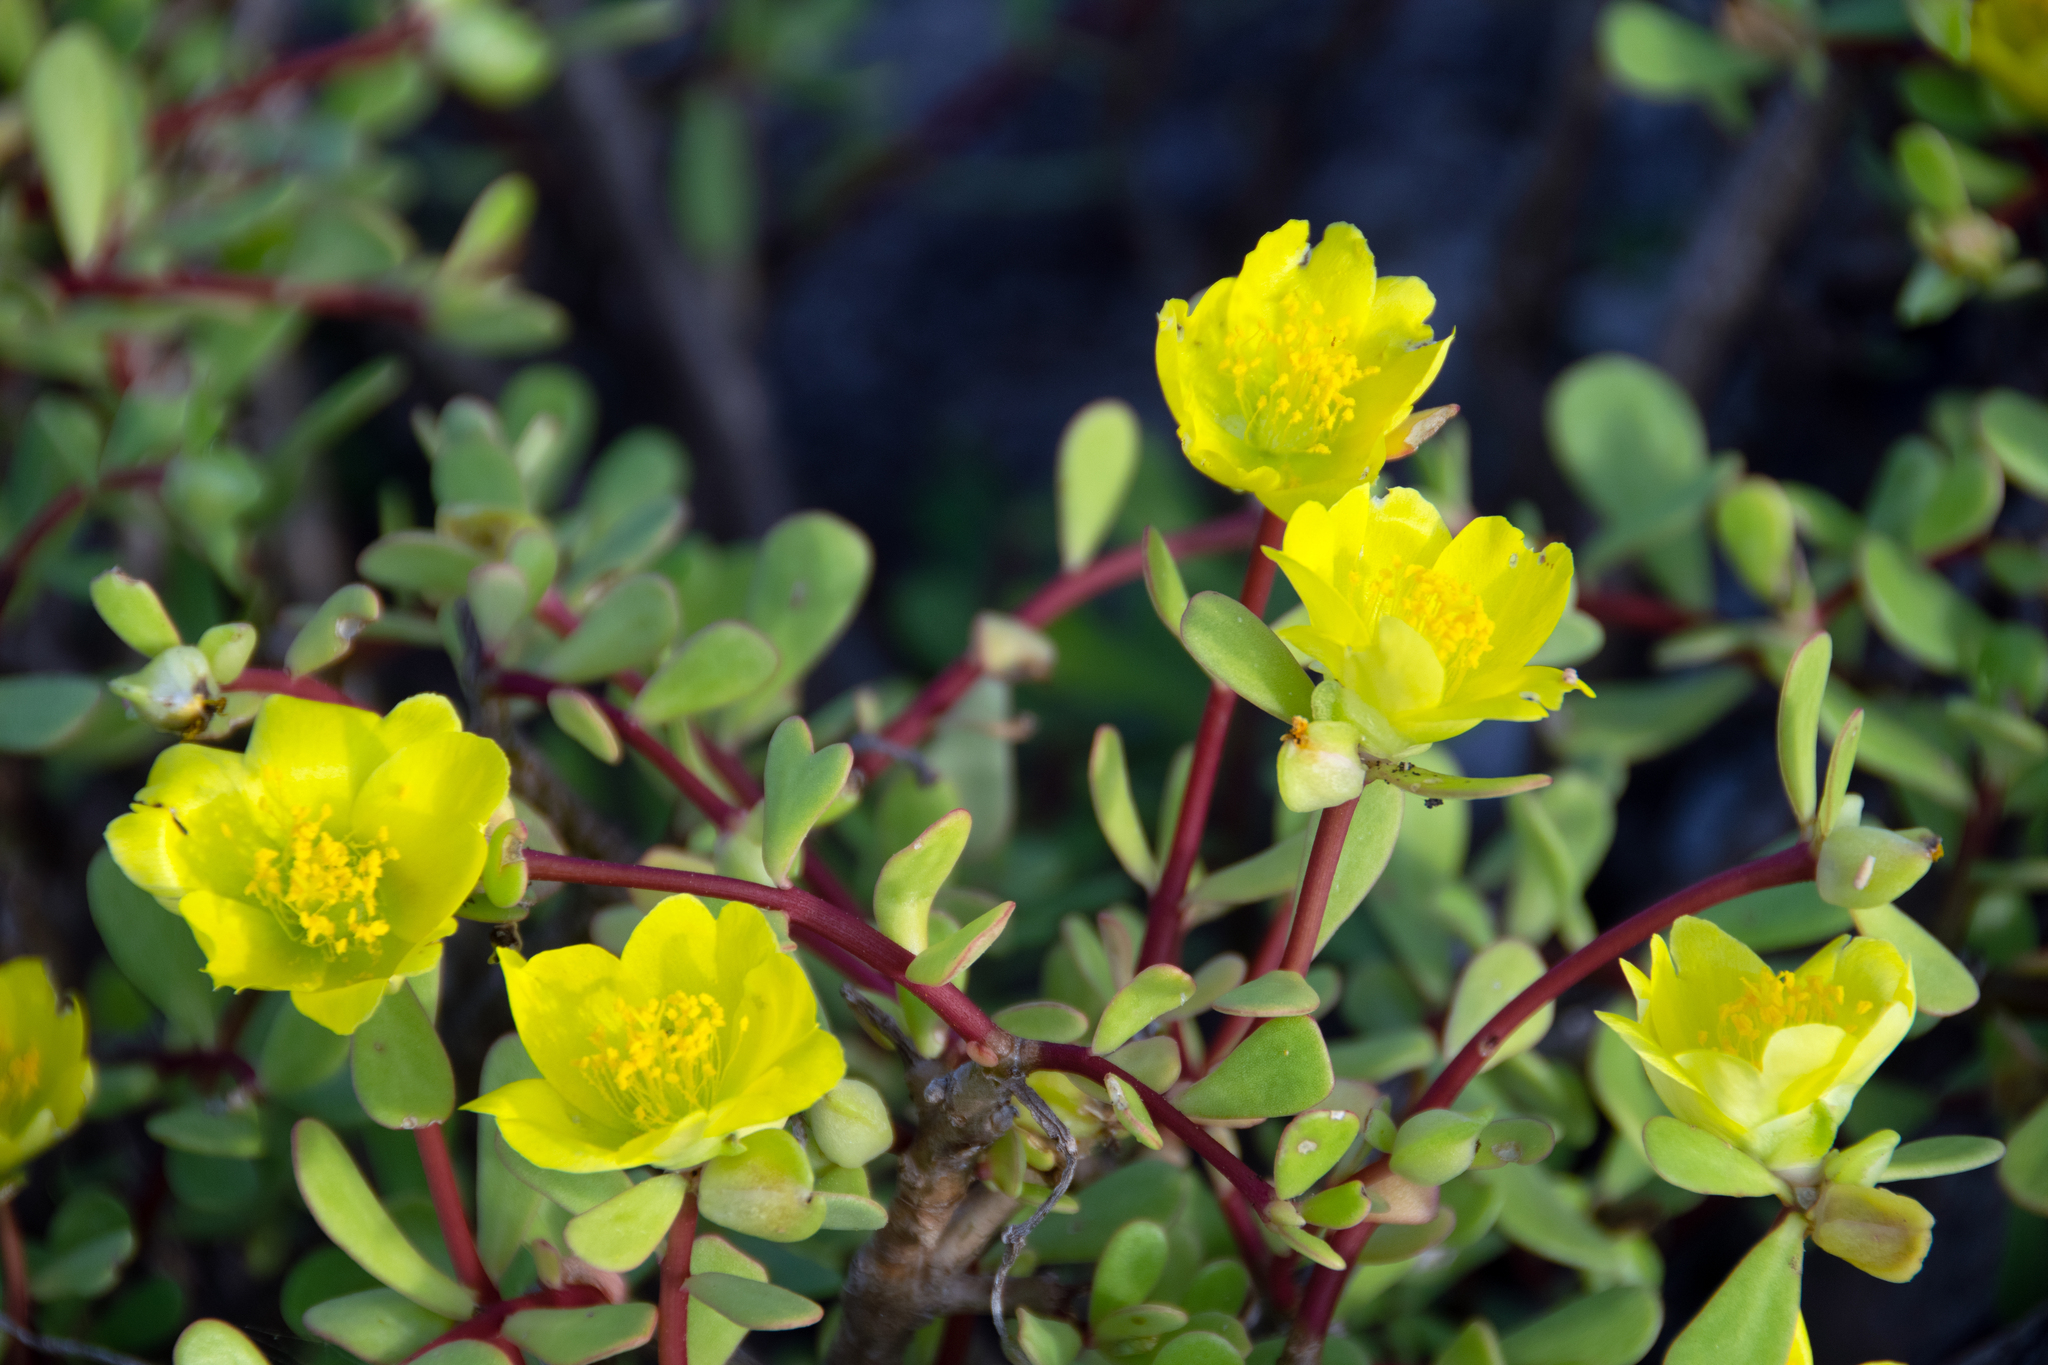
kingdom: Plantae
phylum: Tracheophyta
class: Magnoliopsida
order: Caryophyllales
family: Portulacaceae
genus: Portulaca
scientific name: Portulaca howellii
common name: Galapagos purslane
